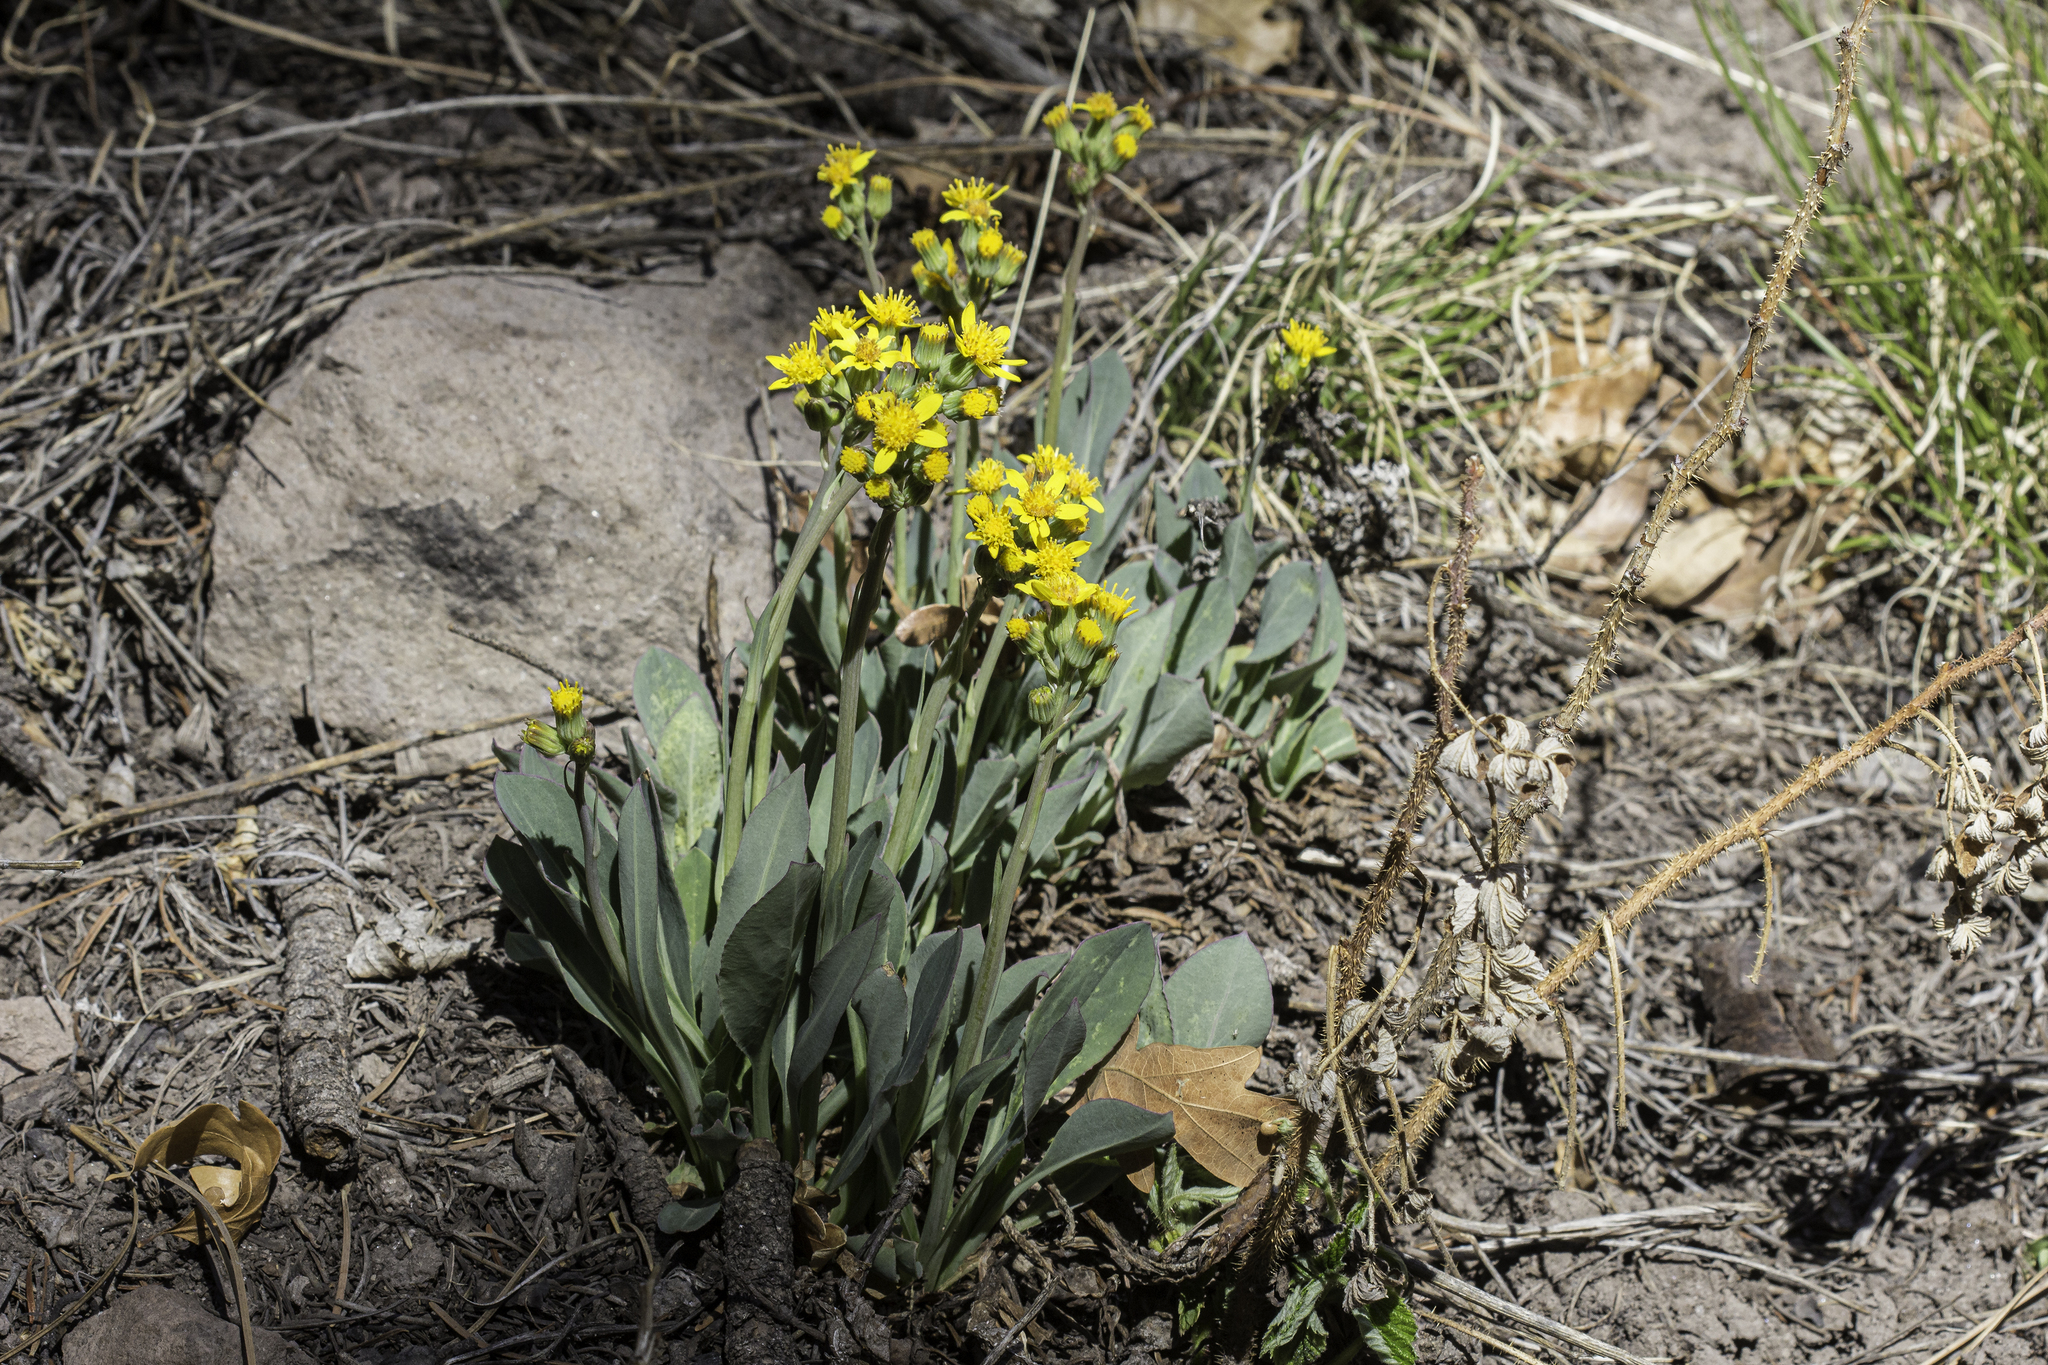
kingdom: Plantae
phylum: Tracheophyta
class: Magnoliopsida
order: Asterales
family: Asteraceae
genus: Senecio
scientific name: Senecio wootonii
